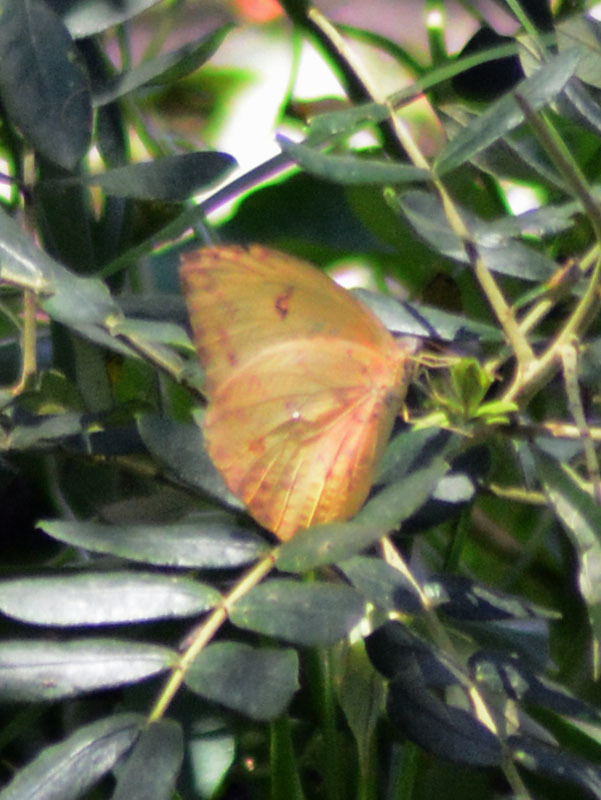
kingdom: Animalia
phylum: Arthropoda
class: Insecta
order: Lepidoptera
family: Pieridae
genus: Phoebis
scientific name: Phoebis philea
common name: Orange-barred giant sulphur
